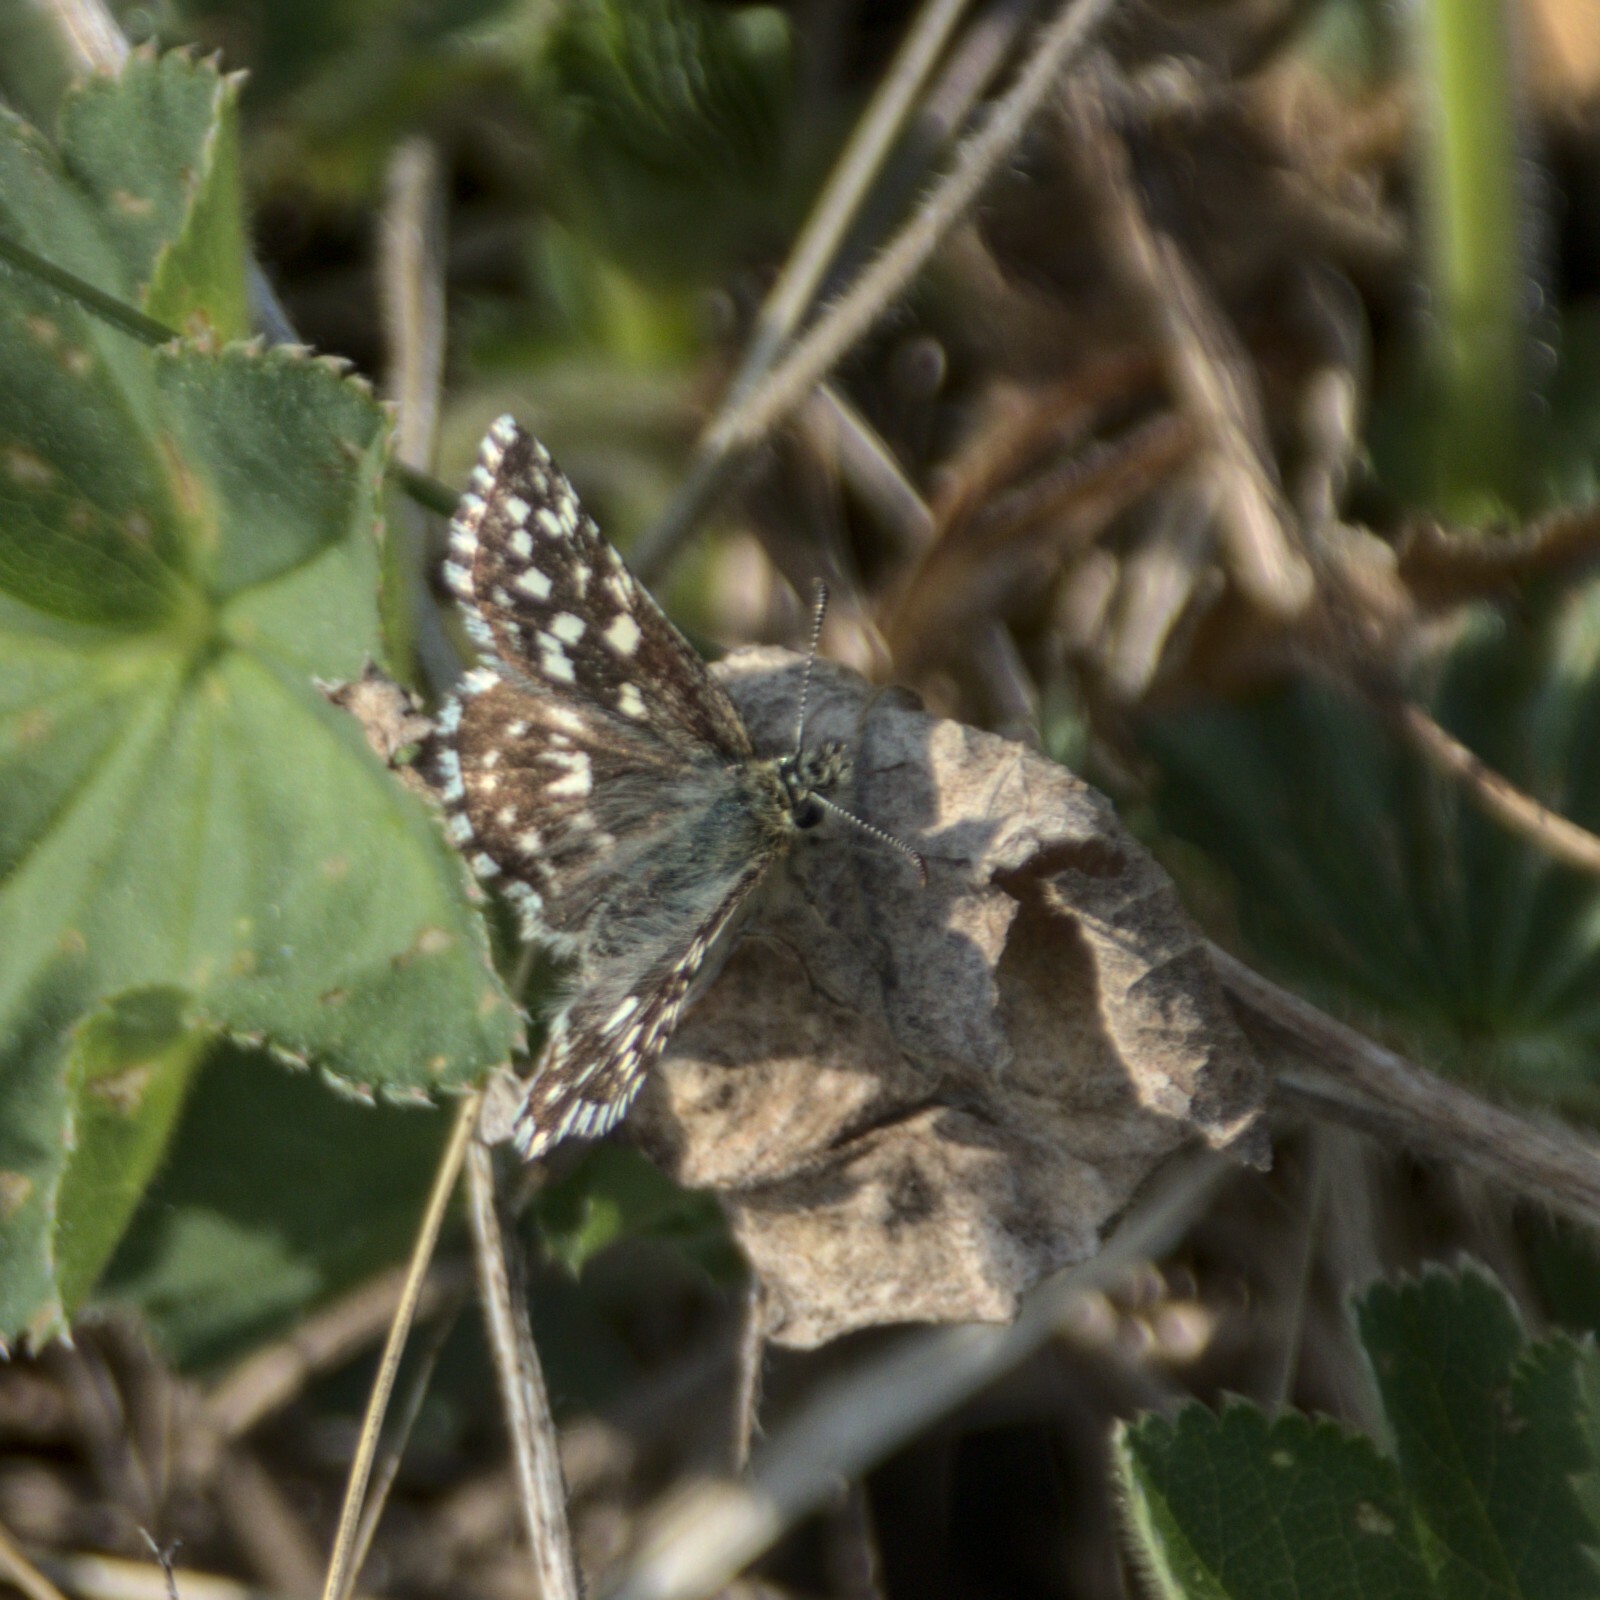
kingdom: Animalia
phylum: Arthropoda
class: Insecta
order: Lepidoptera
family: Hesperiidae
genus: Pyrgus
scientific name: Pyrgus malvae
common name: Grizzled skipper
